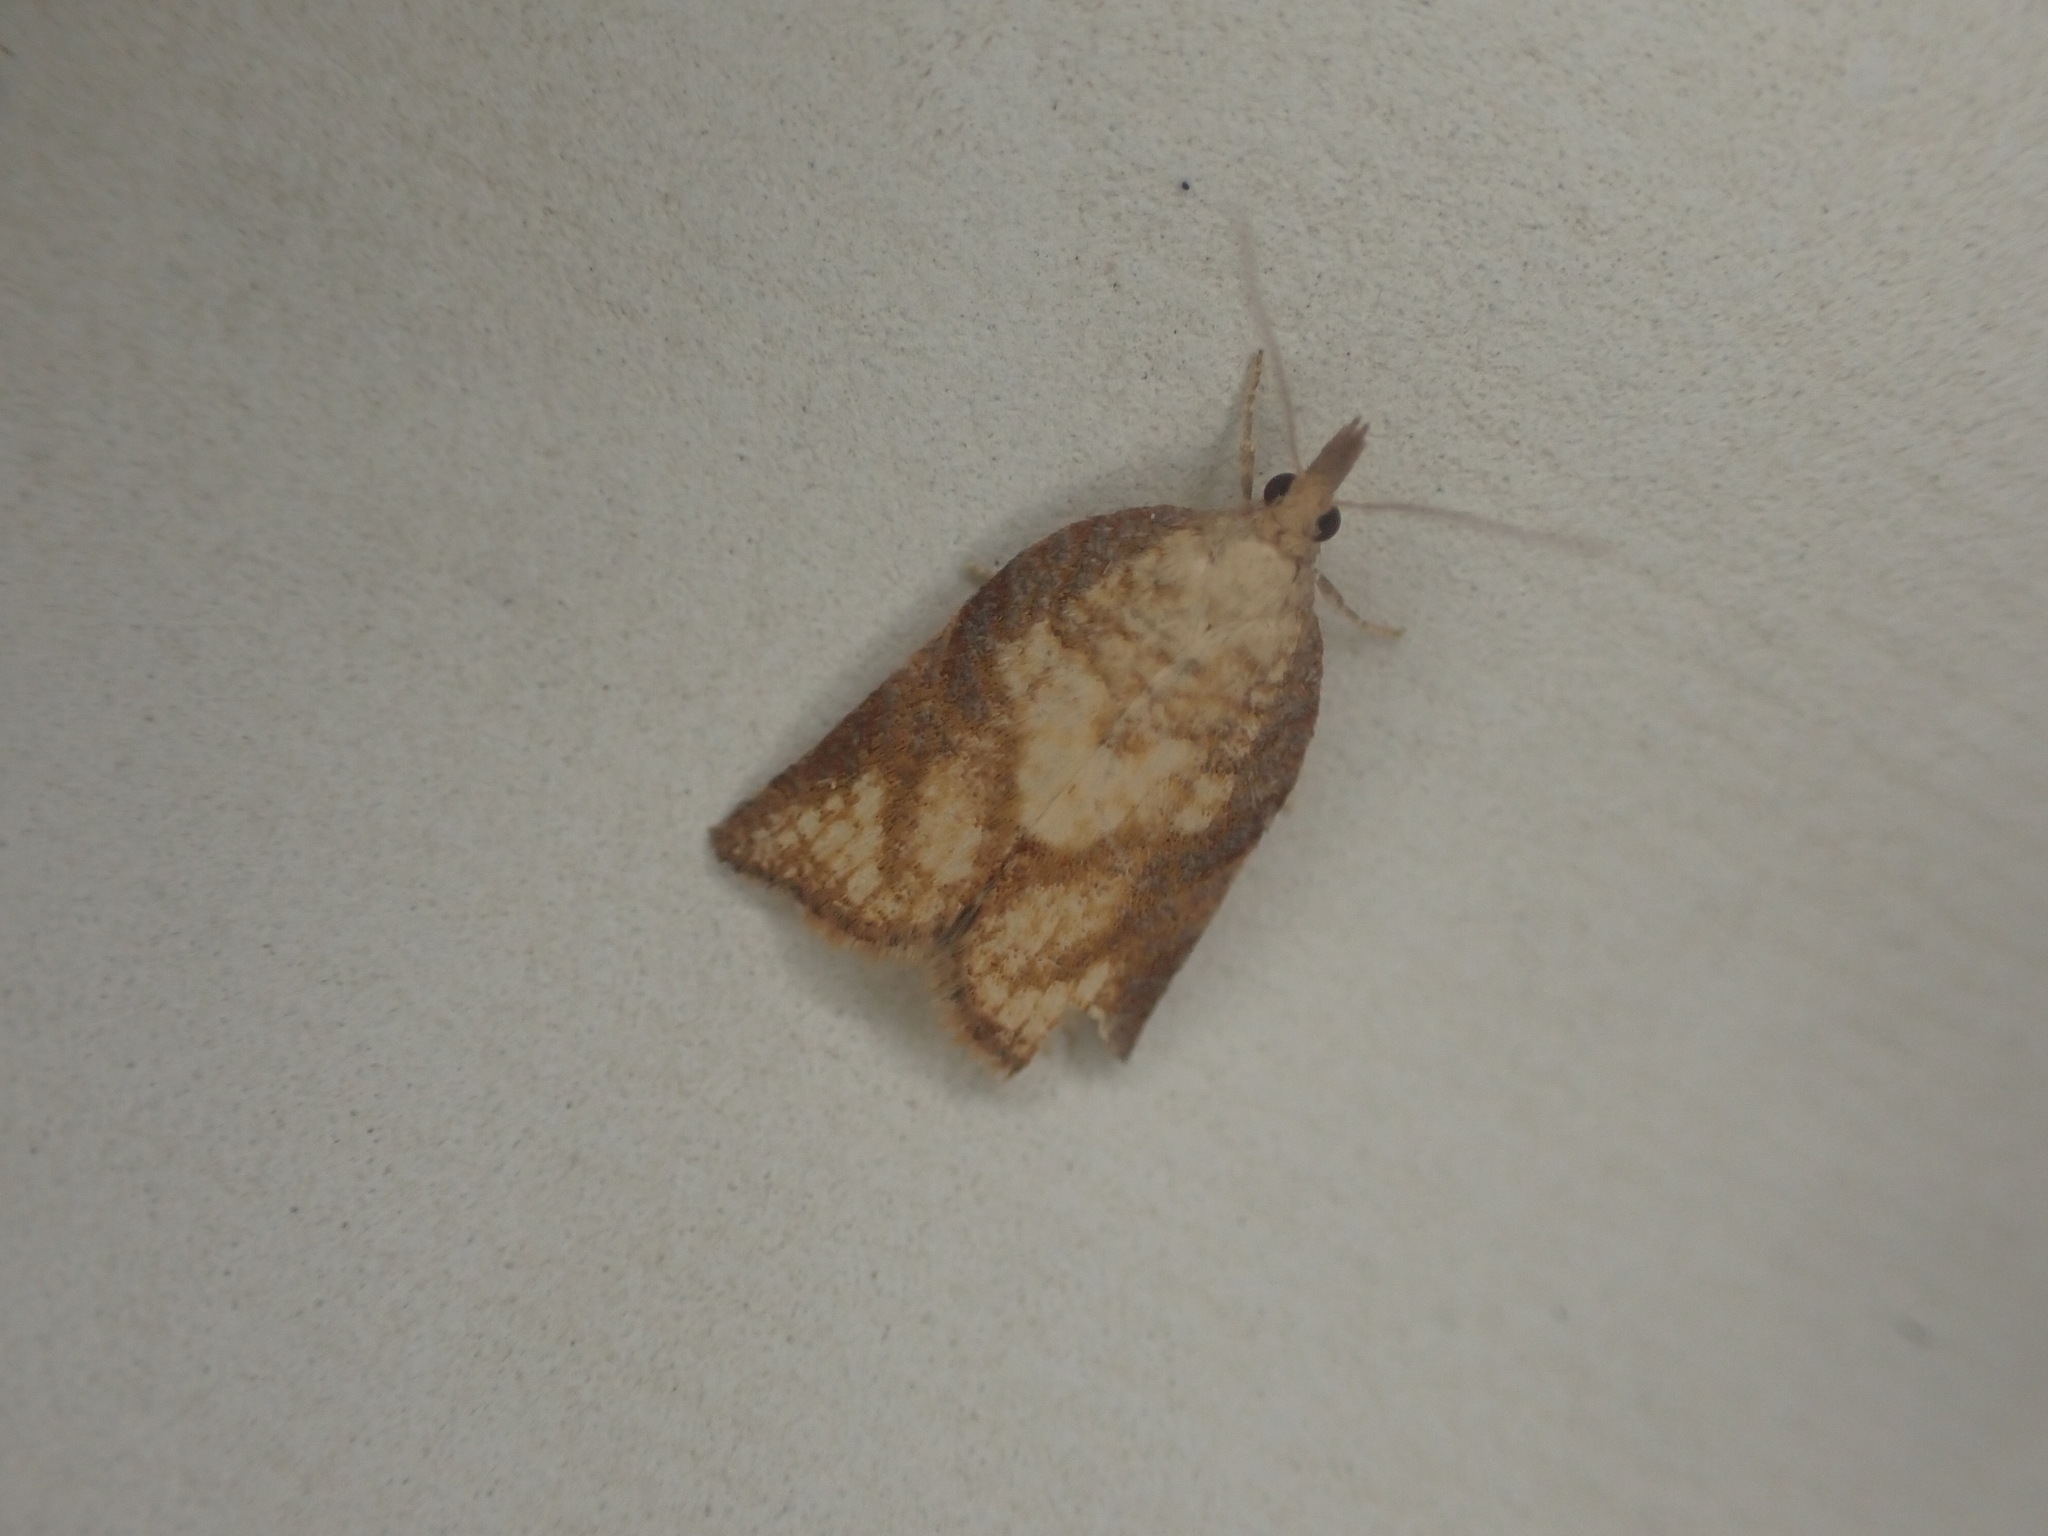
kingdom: Animalia
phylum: Arthropoda
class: Insecta
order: Lepidoptera
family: Tortricidae
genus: Catamacta
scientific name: Catamacta gavisana
